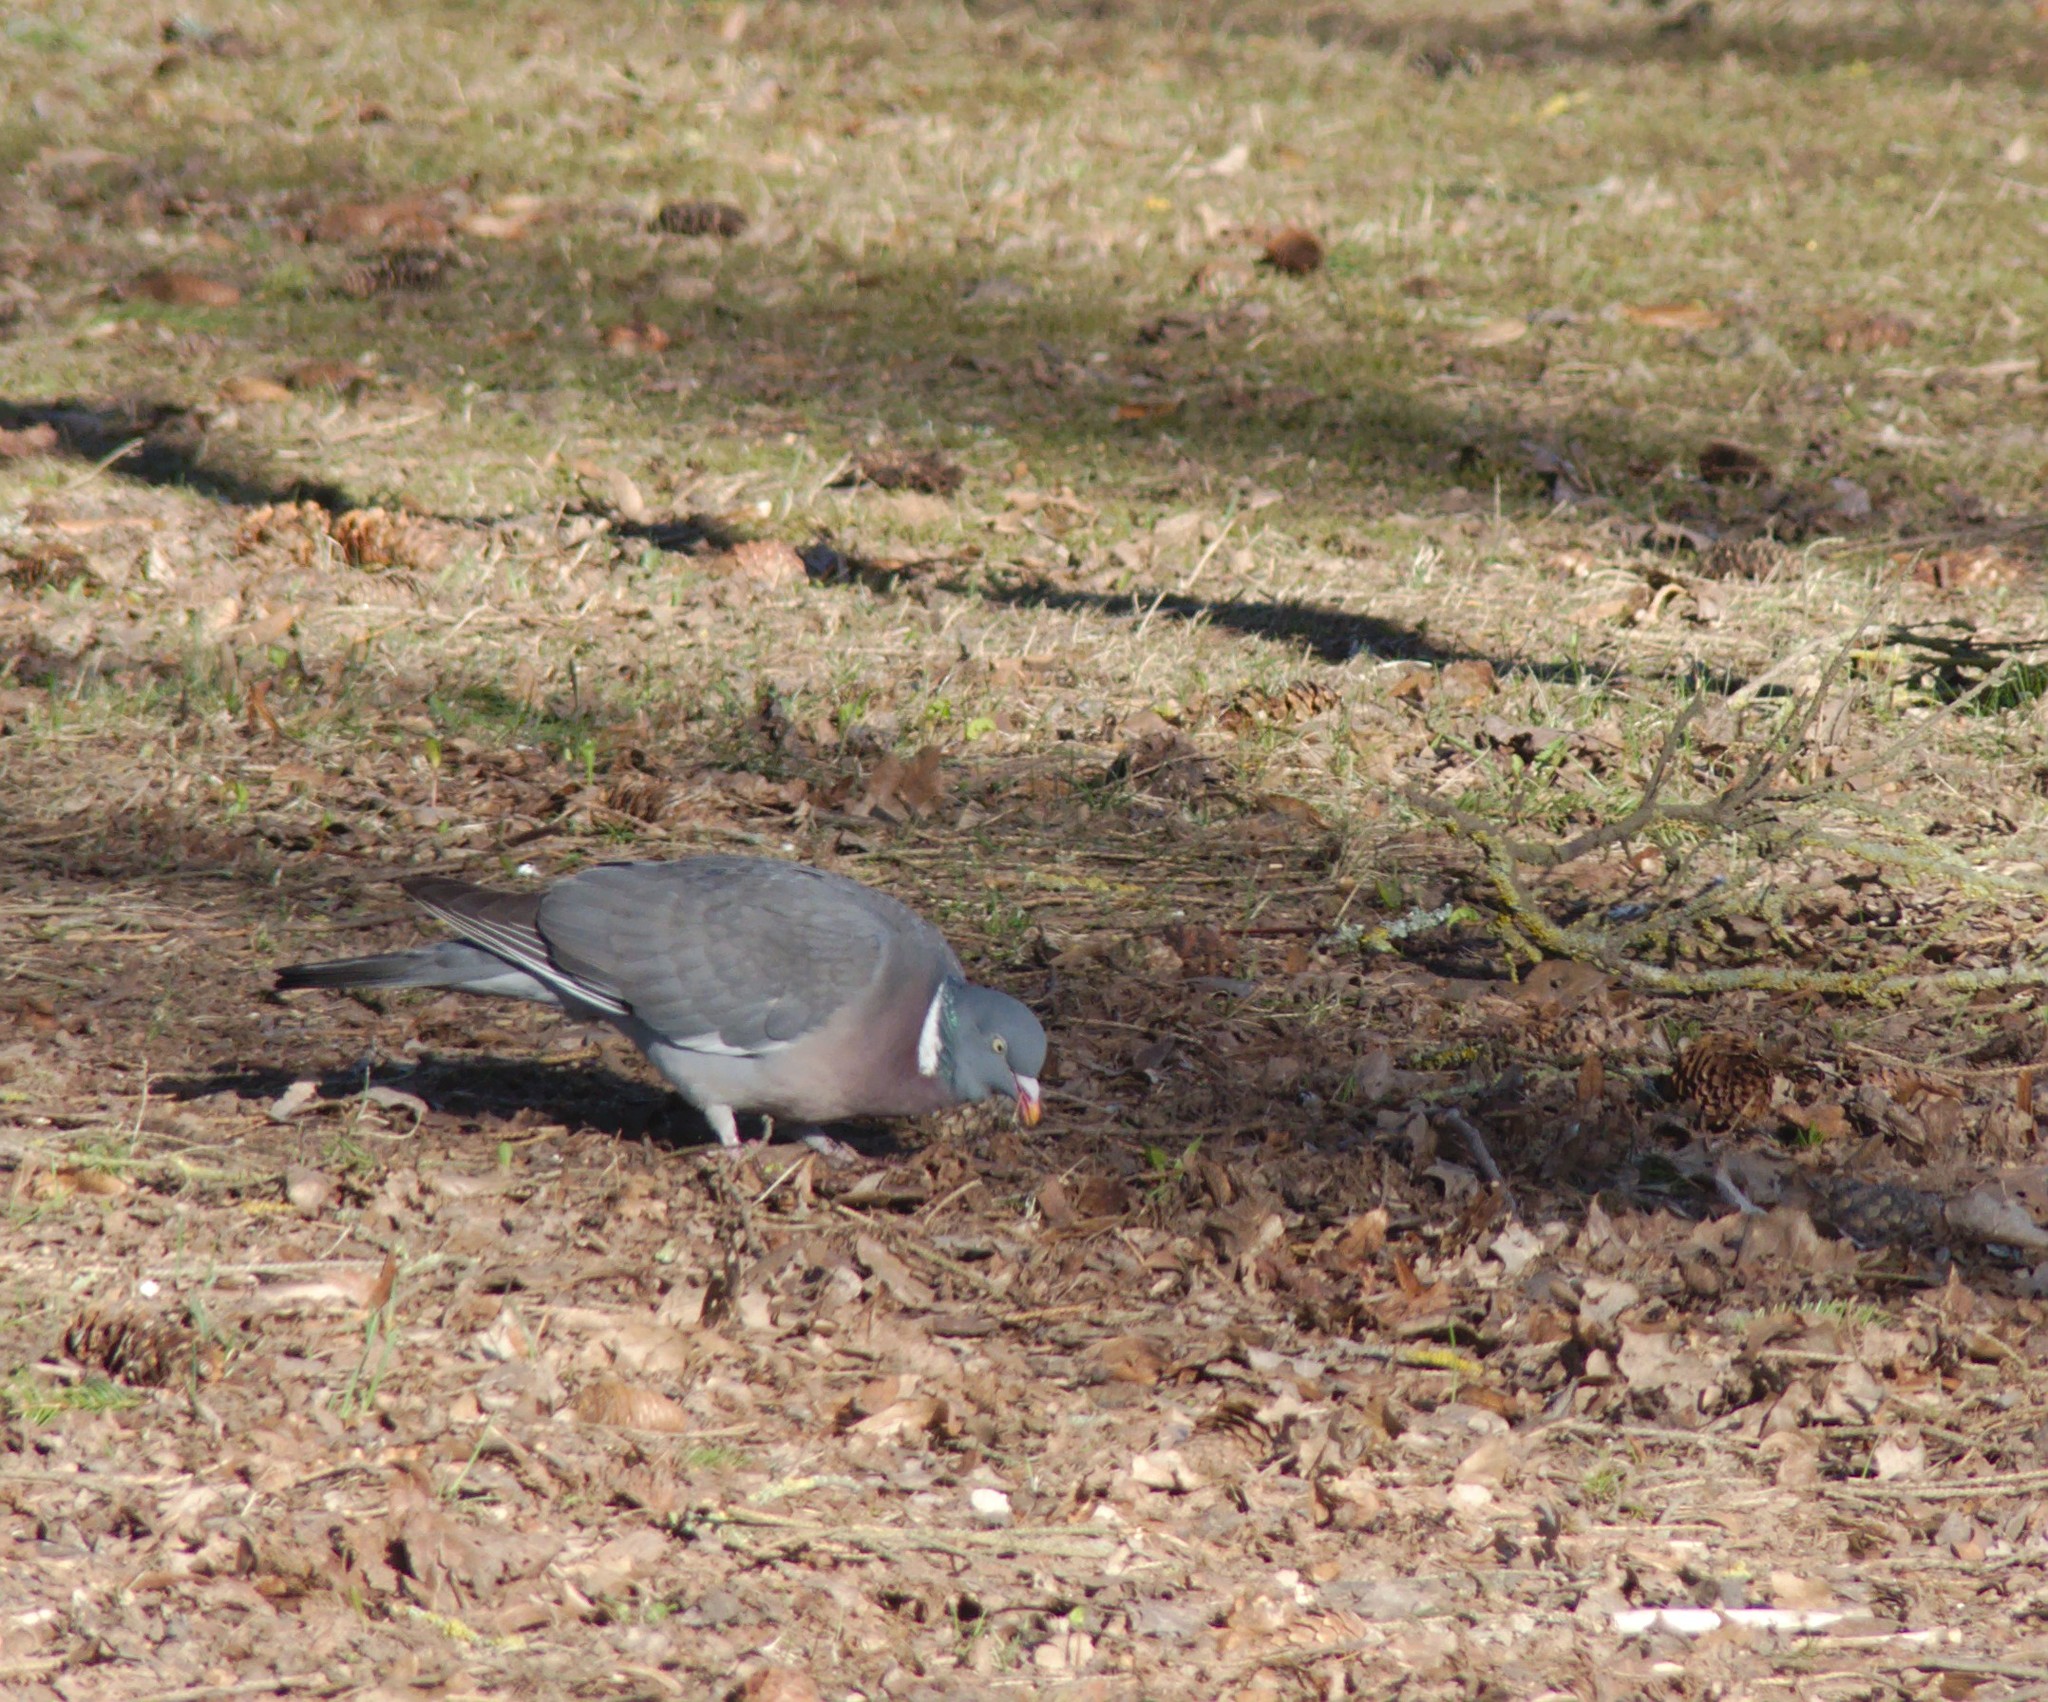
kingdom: Animalia
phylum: Chordata
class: Aves
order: Columbiformes
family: Columbidae
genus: Columba
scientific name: Columba palumbus
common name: Common wood pigeon
